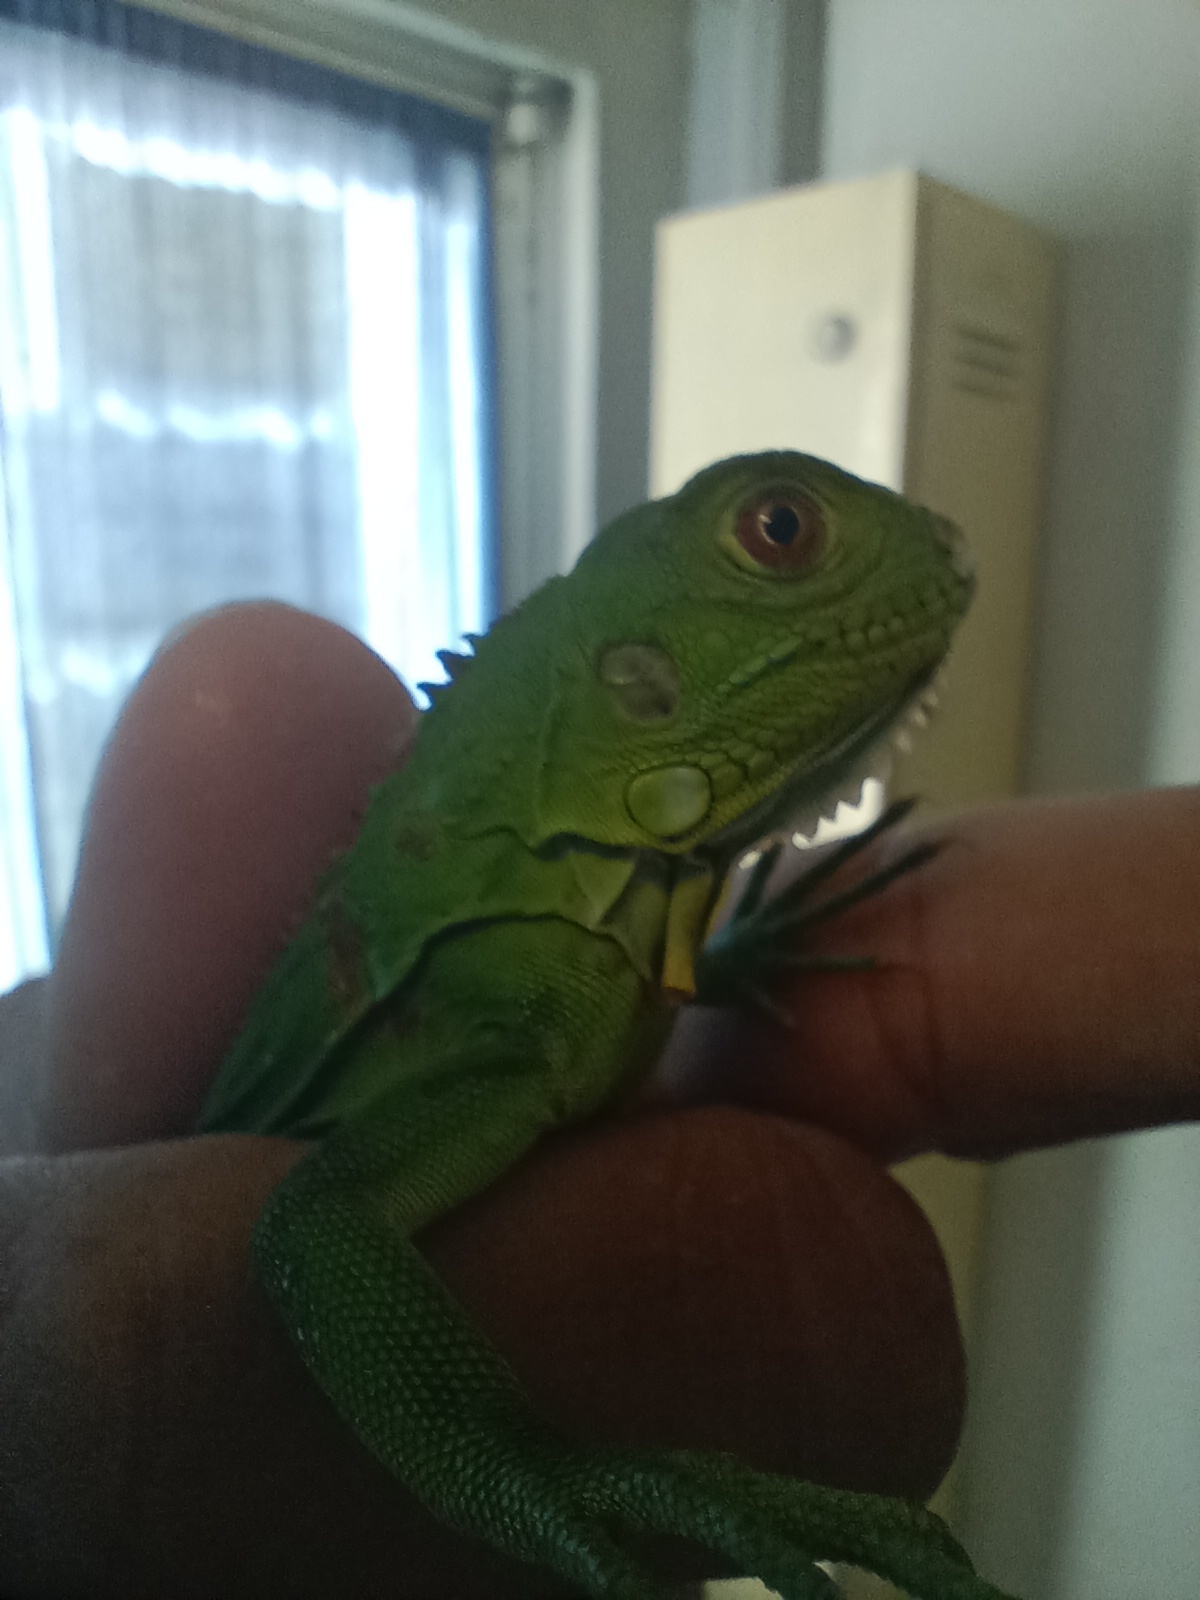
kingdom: Animalia
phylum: Chordata
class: Squamata
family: Iguanidae
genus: Iguana
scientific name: Iguana iguana
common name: Green iguana
